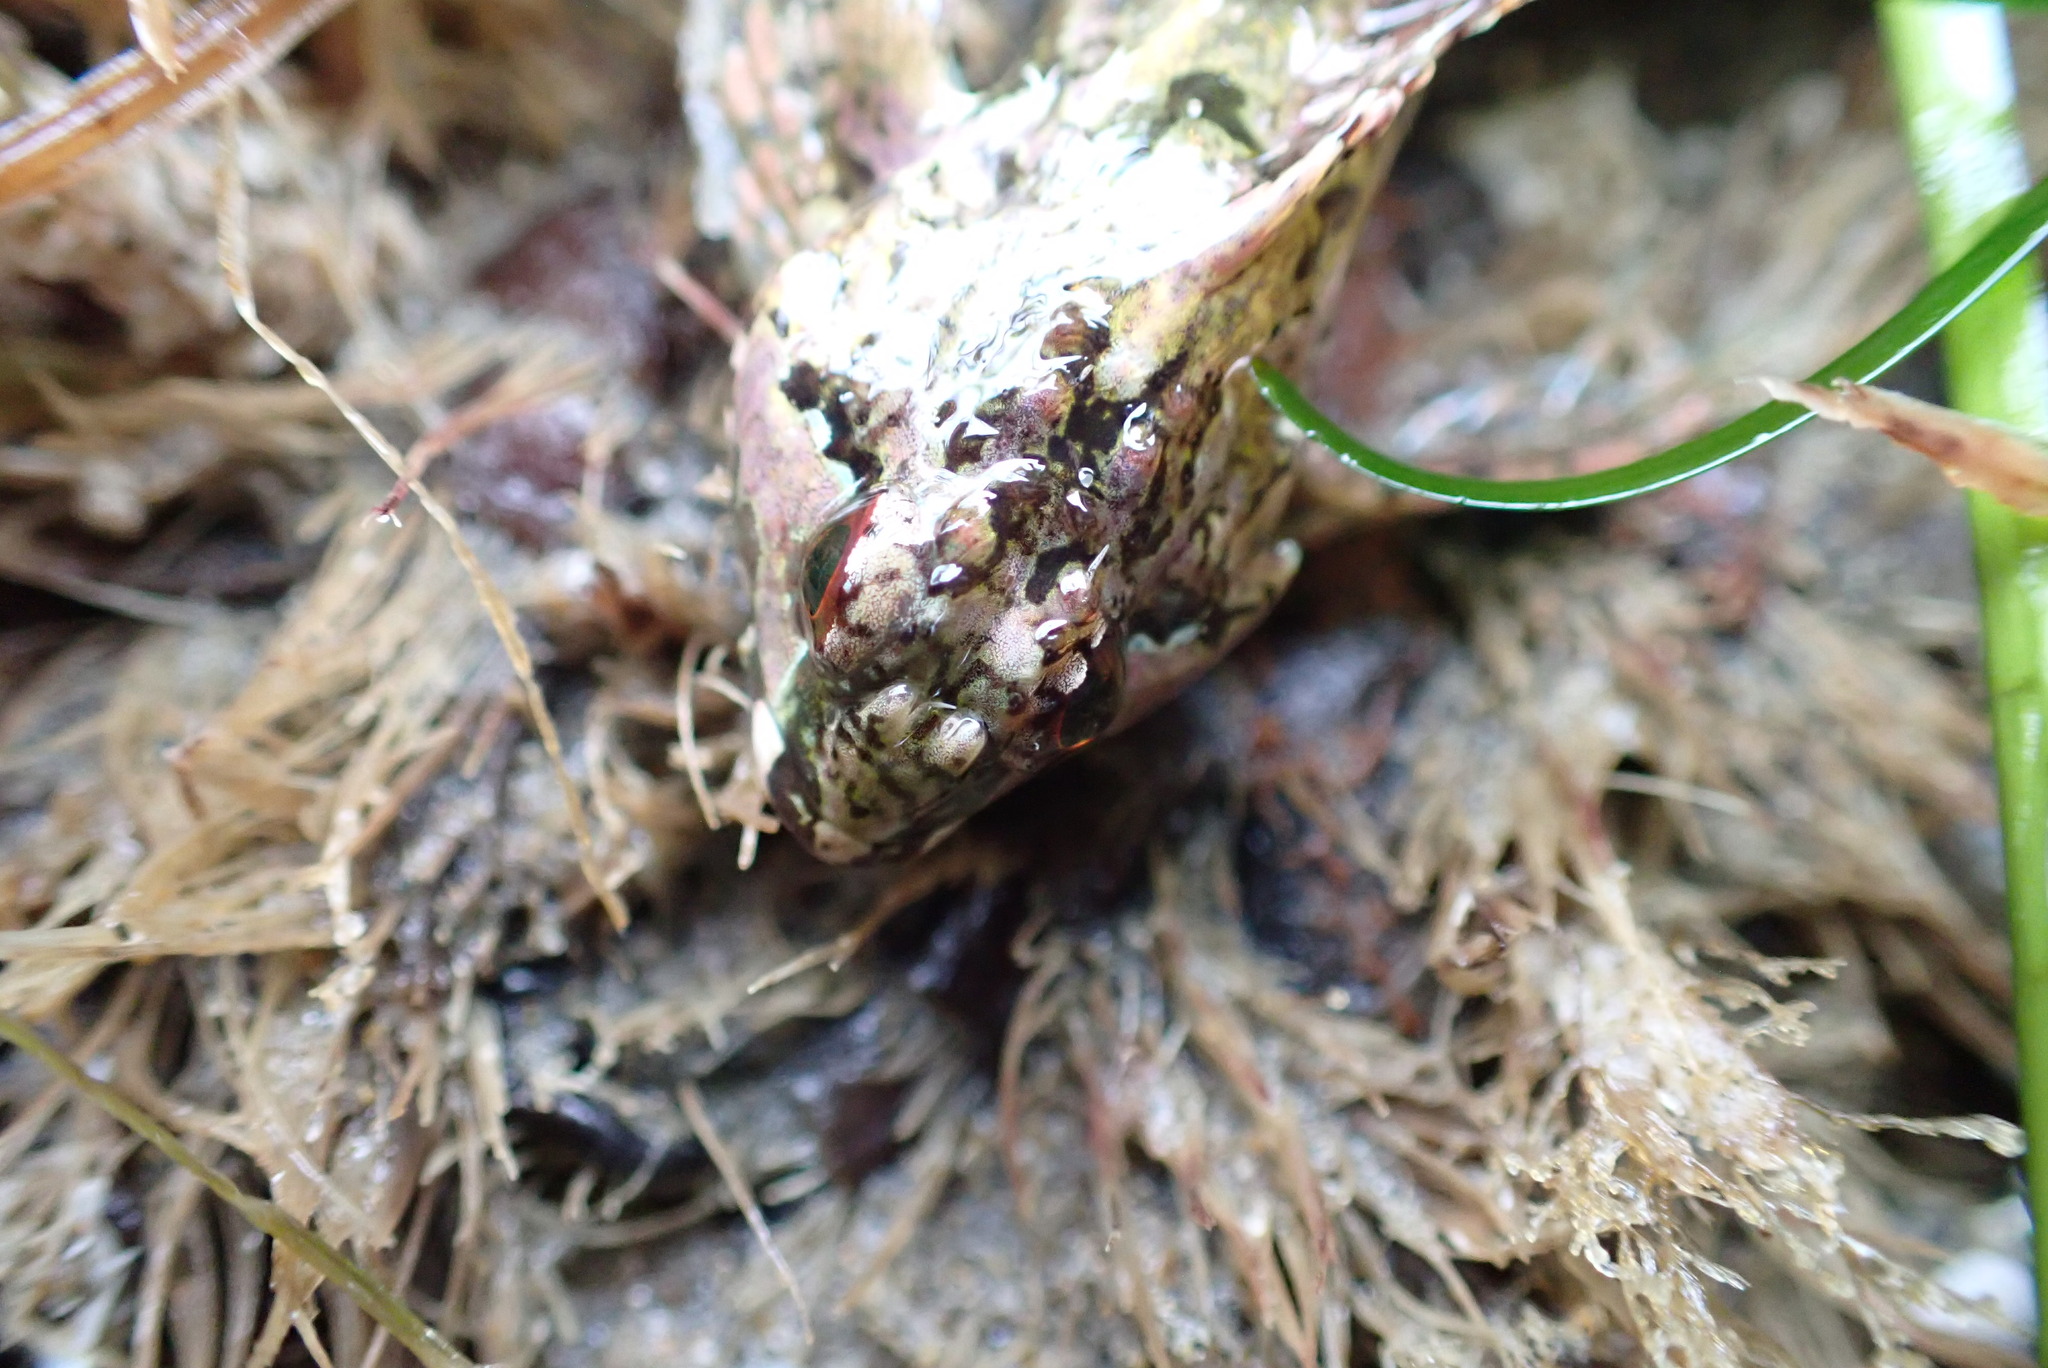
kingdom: Animalia
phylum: Chordata
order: Scorpaeniformes
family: Cottidae
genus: Oligocottus
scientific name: Oligocottus snyderi
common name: Fluffy sculpin
